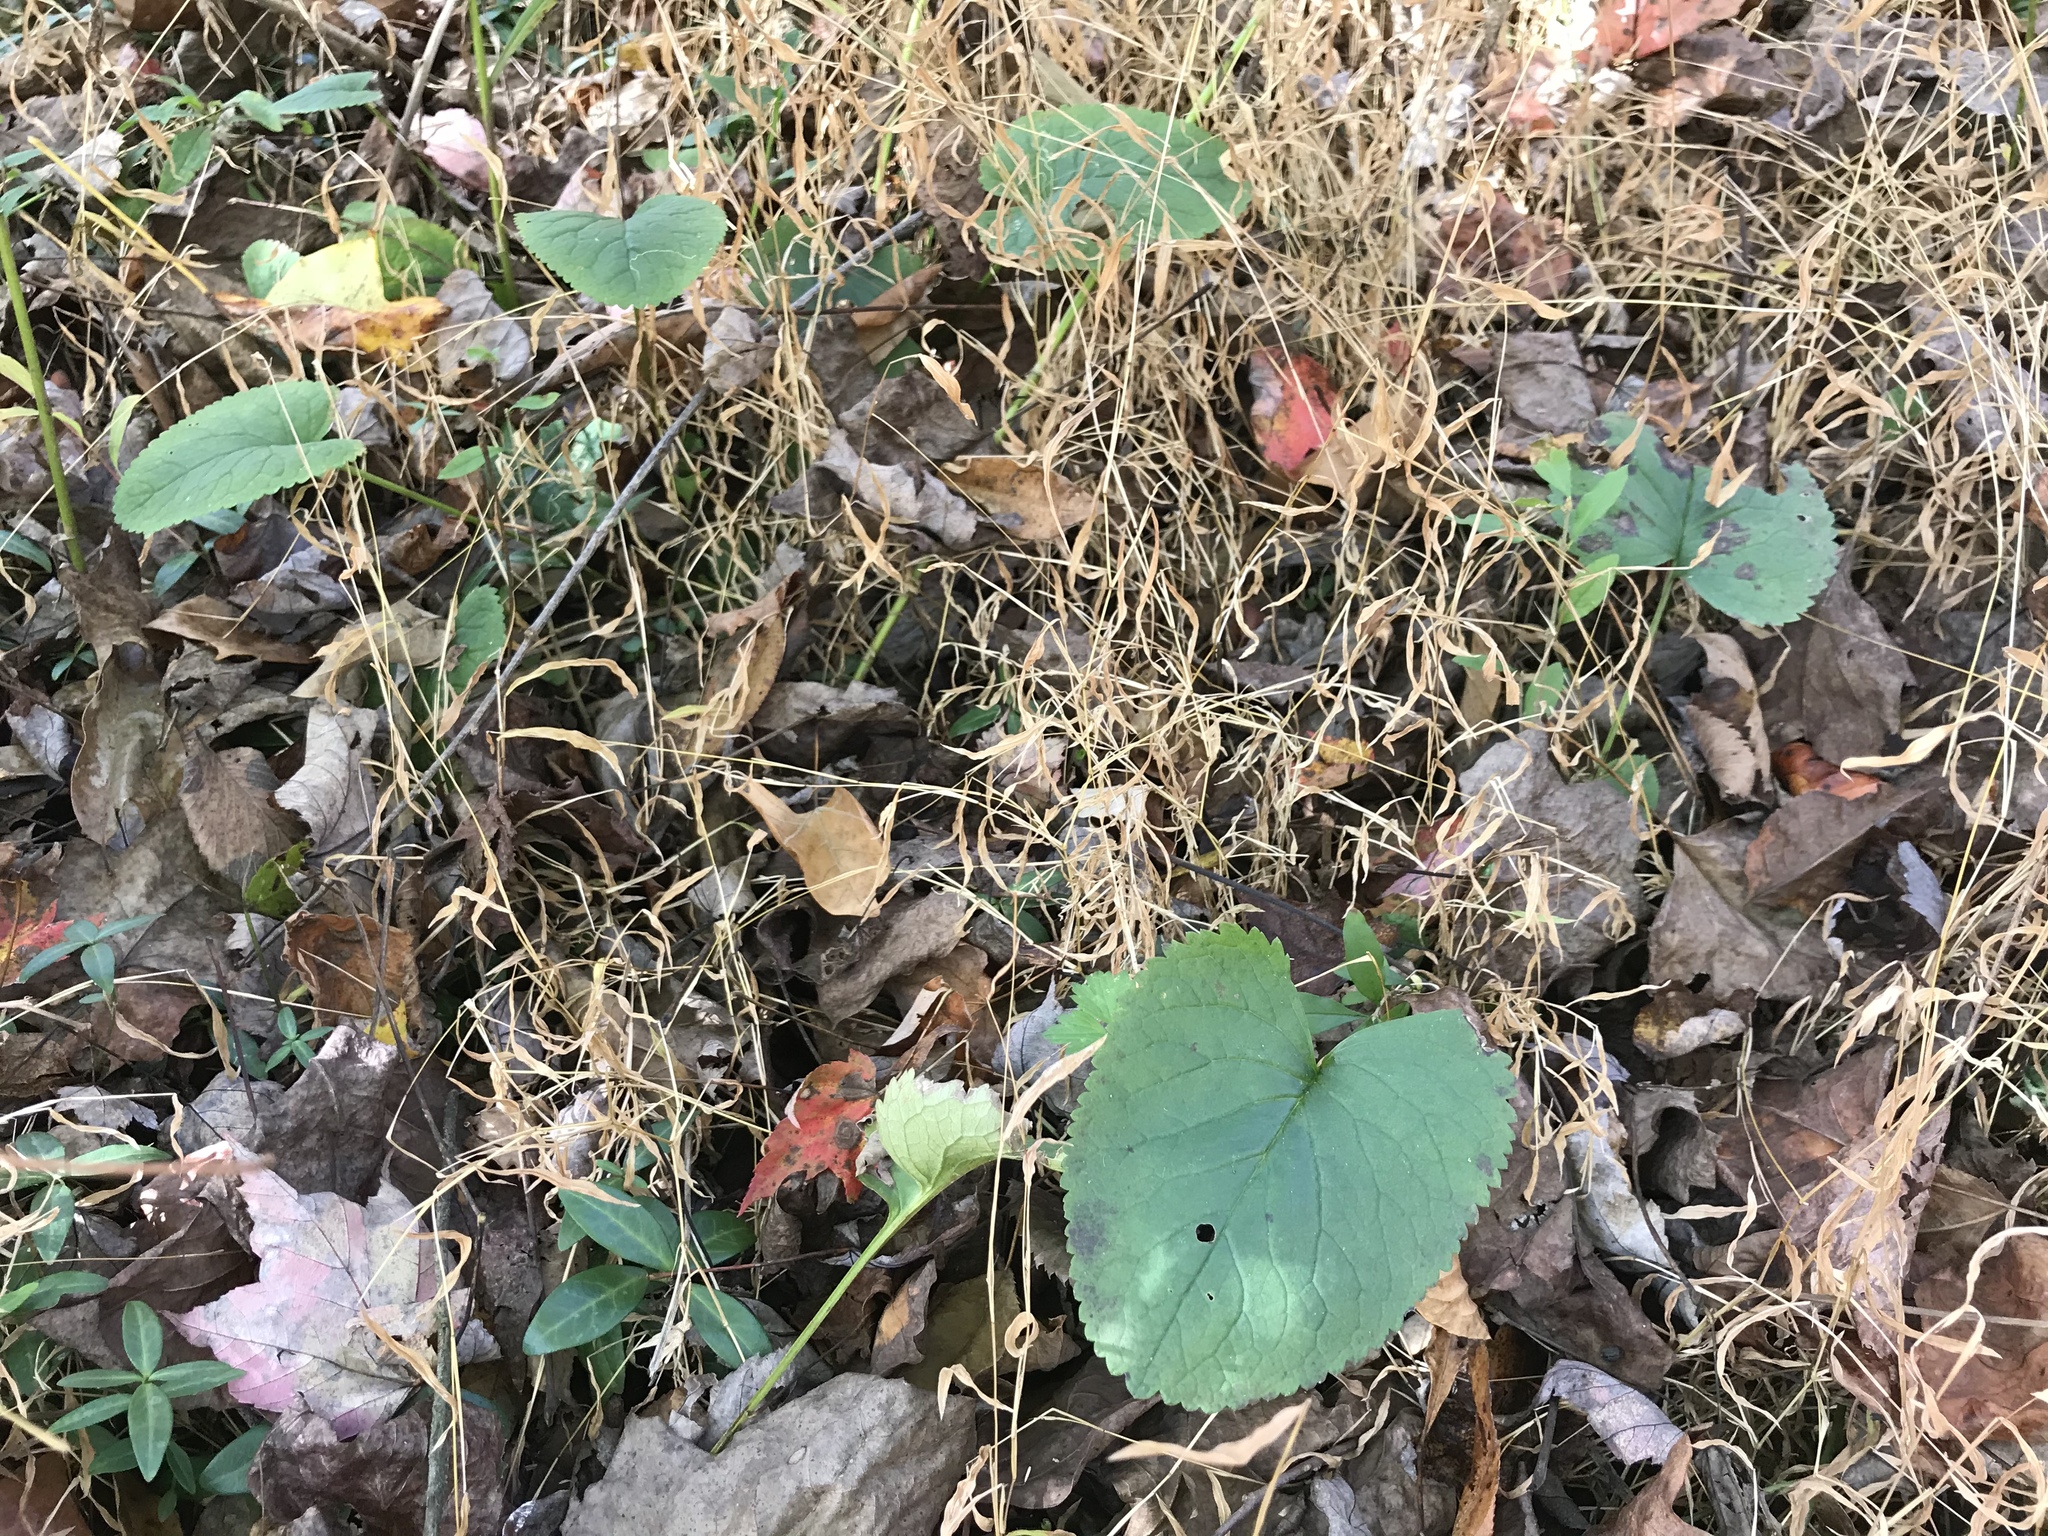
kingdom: Plantae
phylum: Tracheophyta
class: Magnoliopsida
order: Asterales
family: Asteraceae
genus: Packera
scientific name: Packera aurea
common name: Golden groundsel
